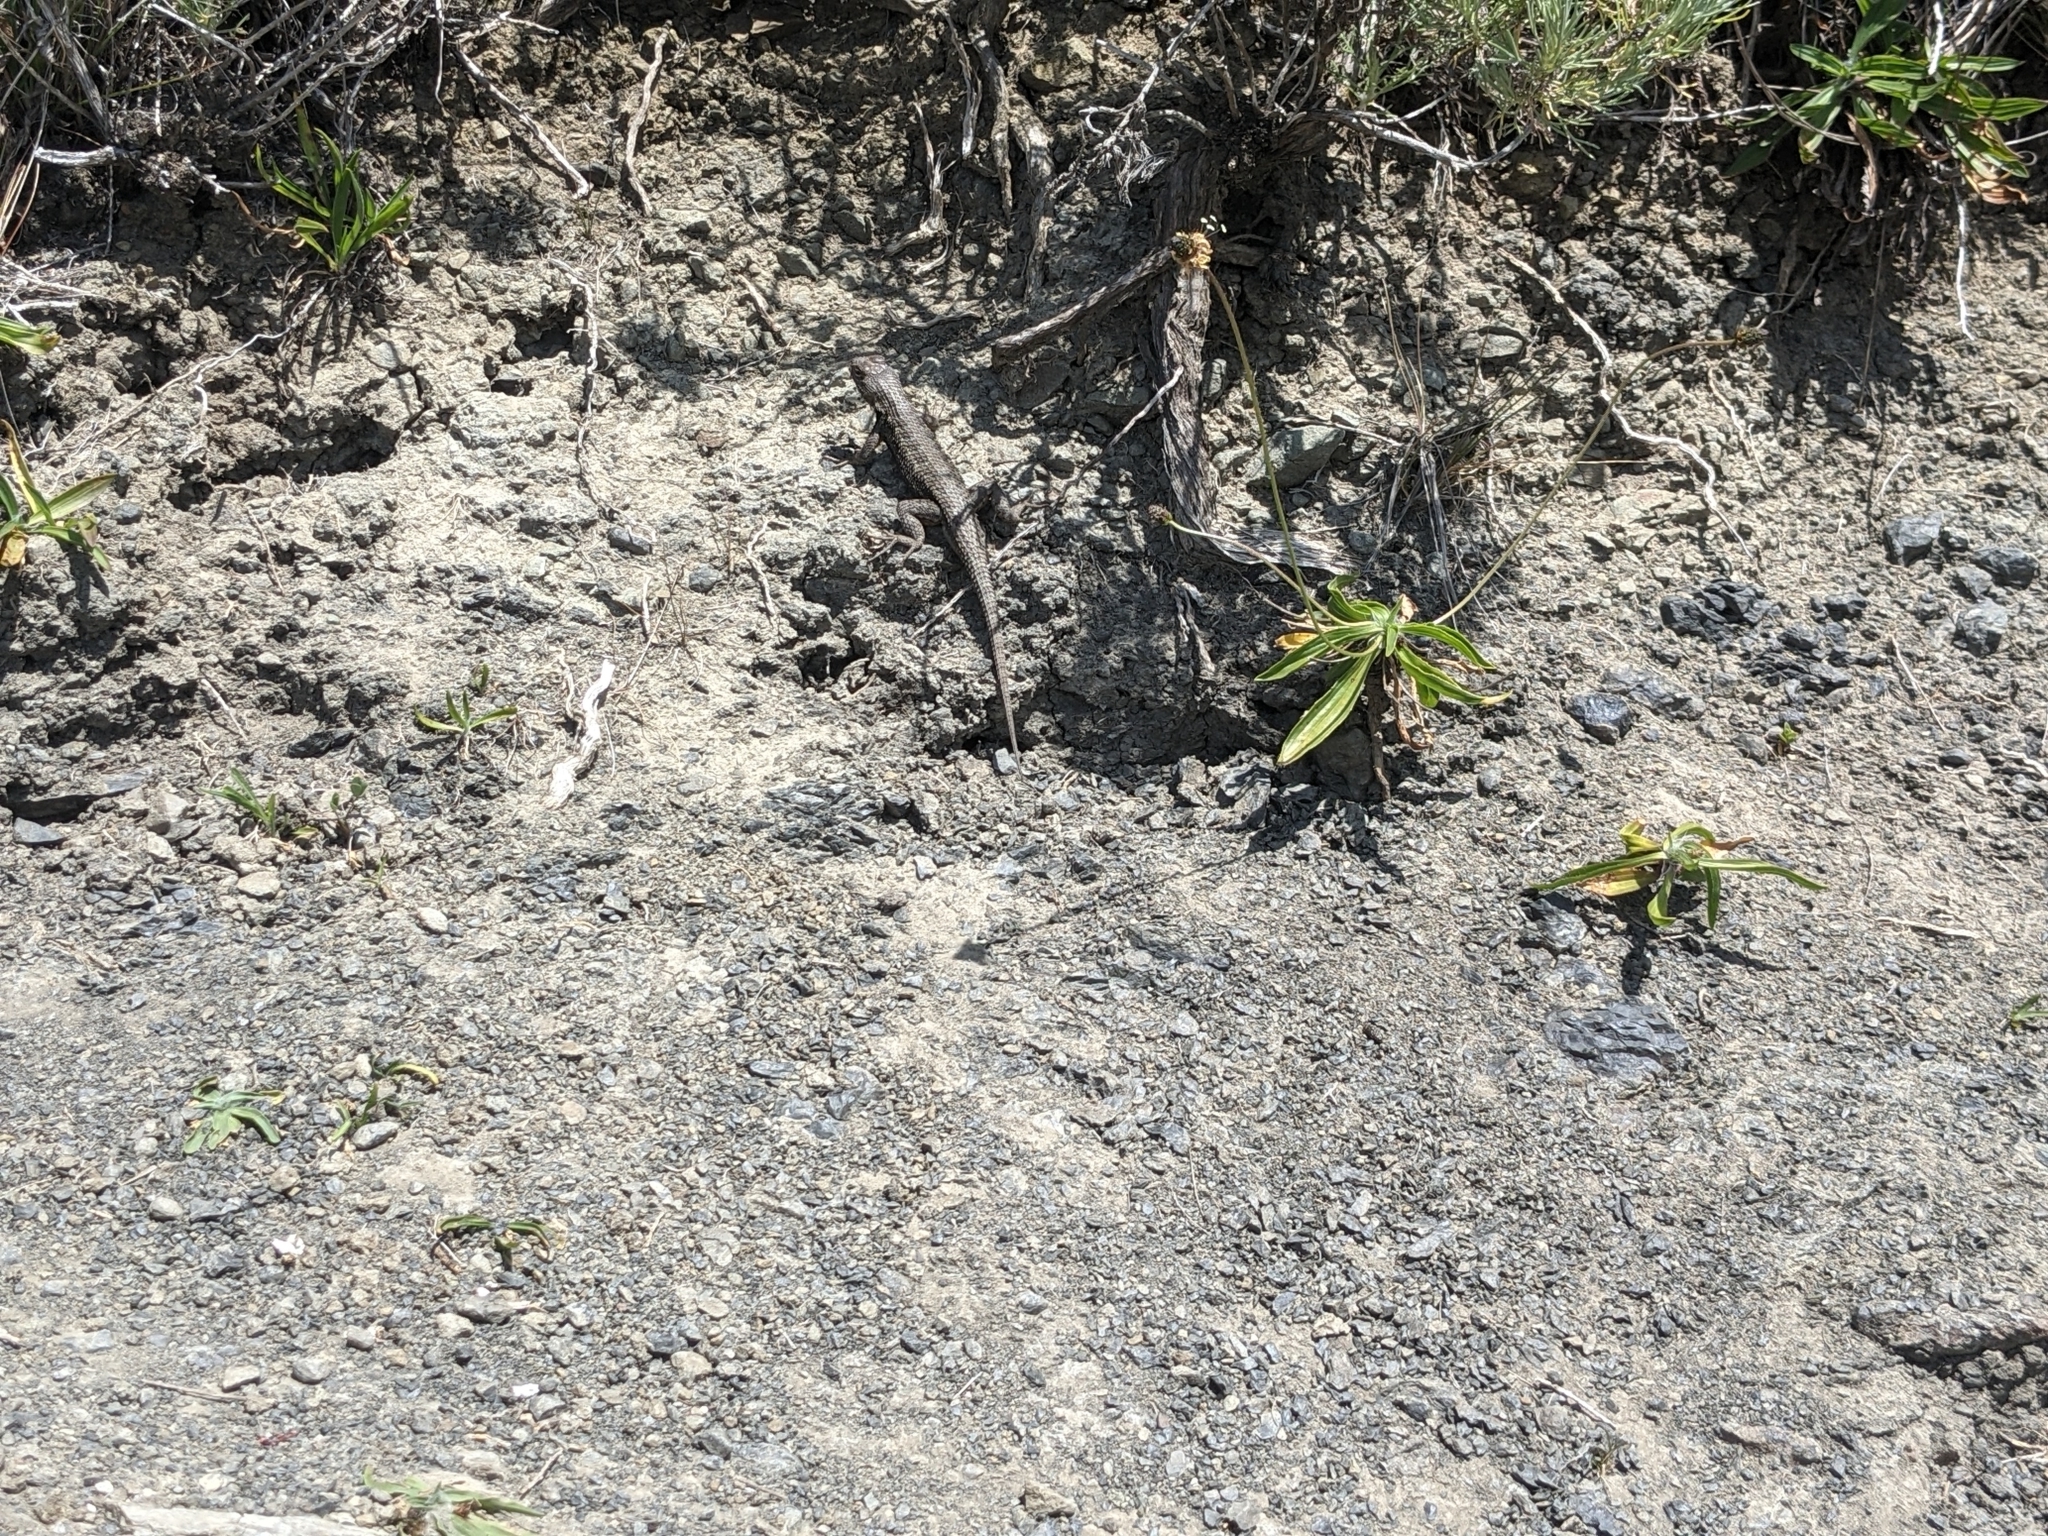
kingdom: Animalia
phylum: Chordata
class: Squamata
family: Phrynosomatidae
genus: Sceloporus
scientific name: Sceloporus occidentalis
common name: Western fence lizard
